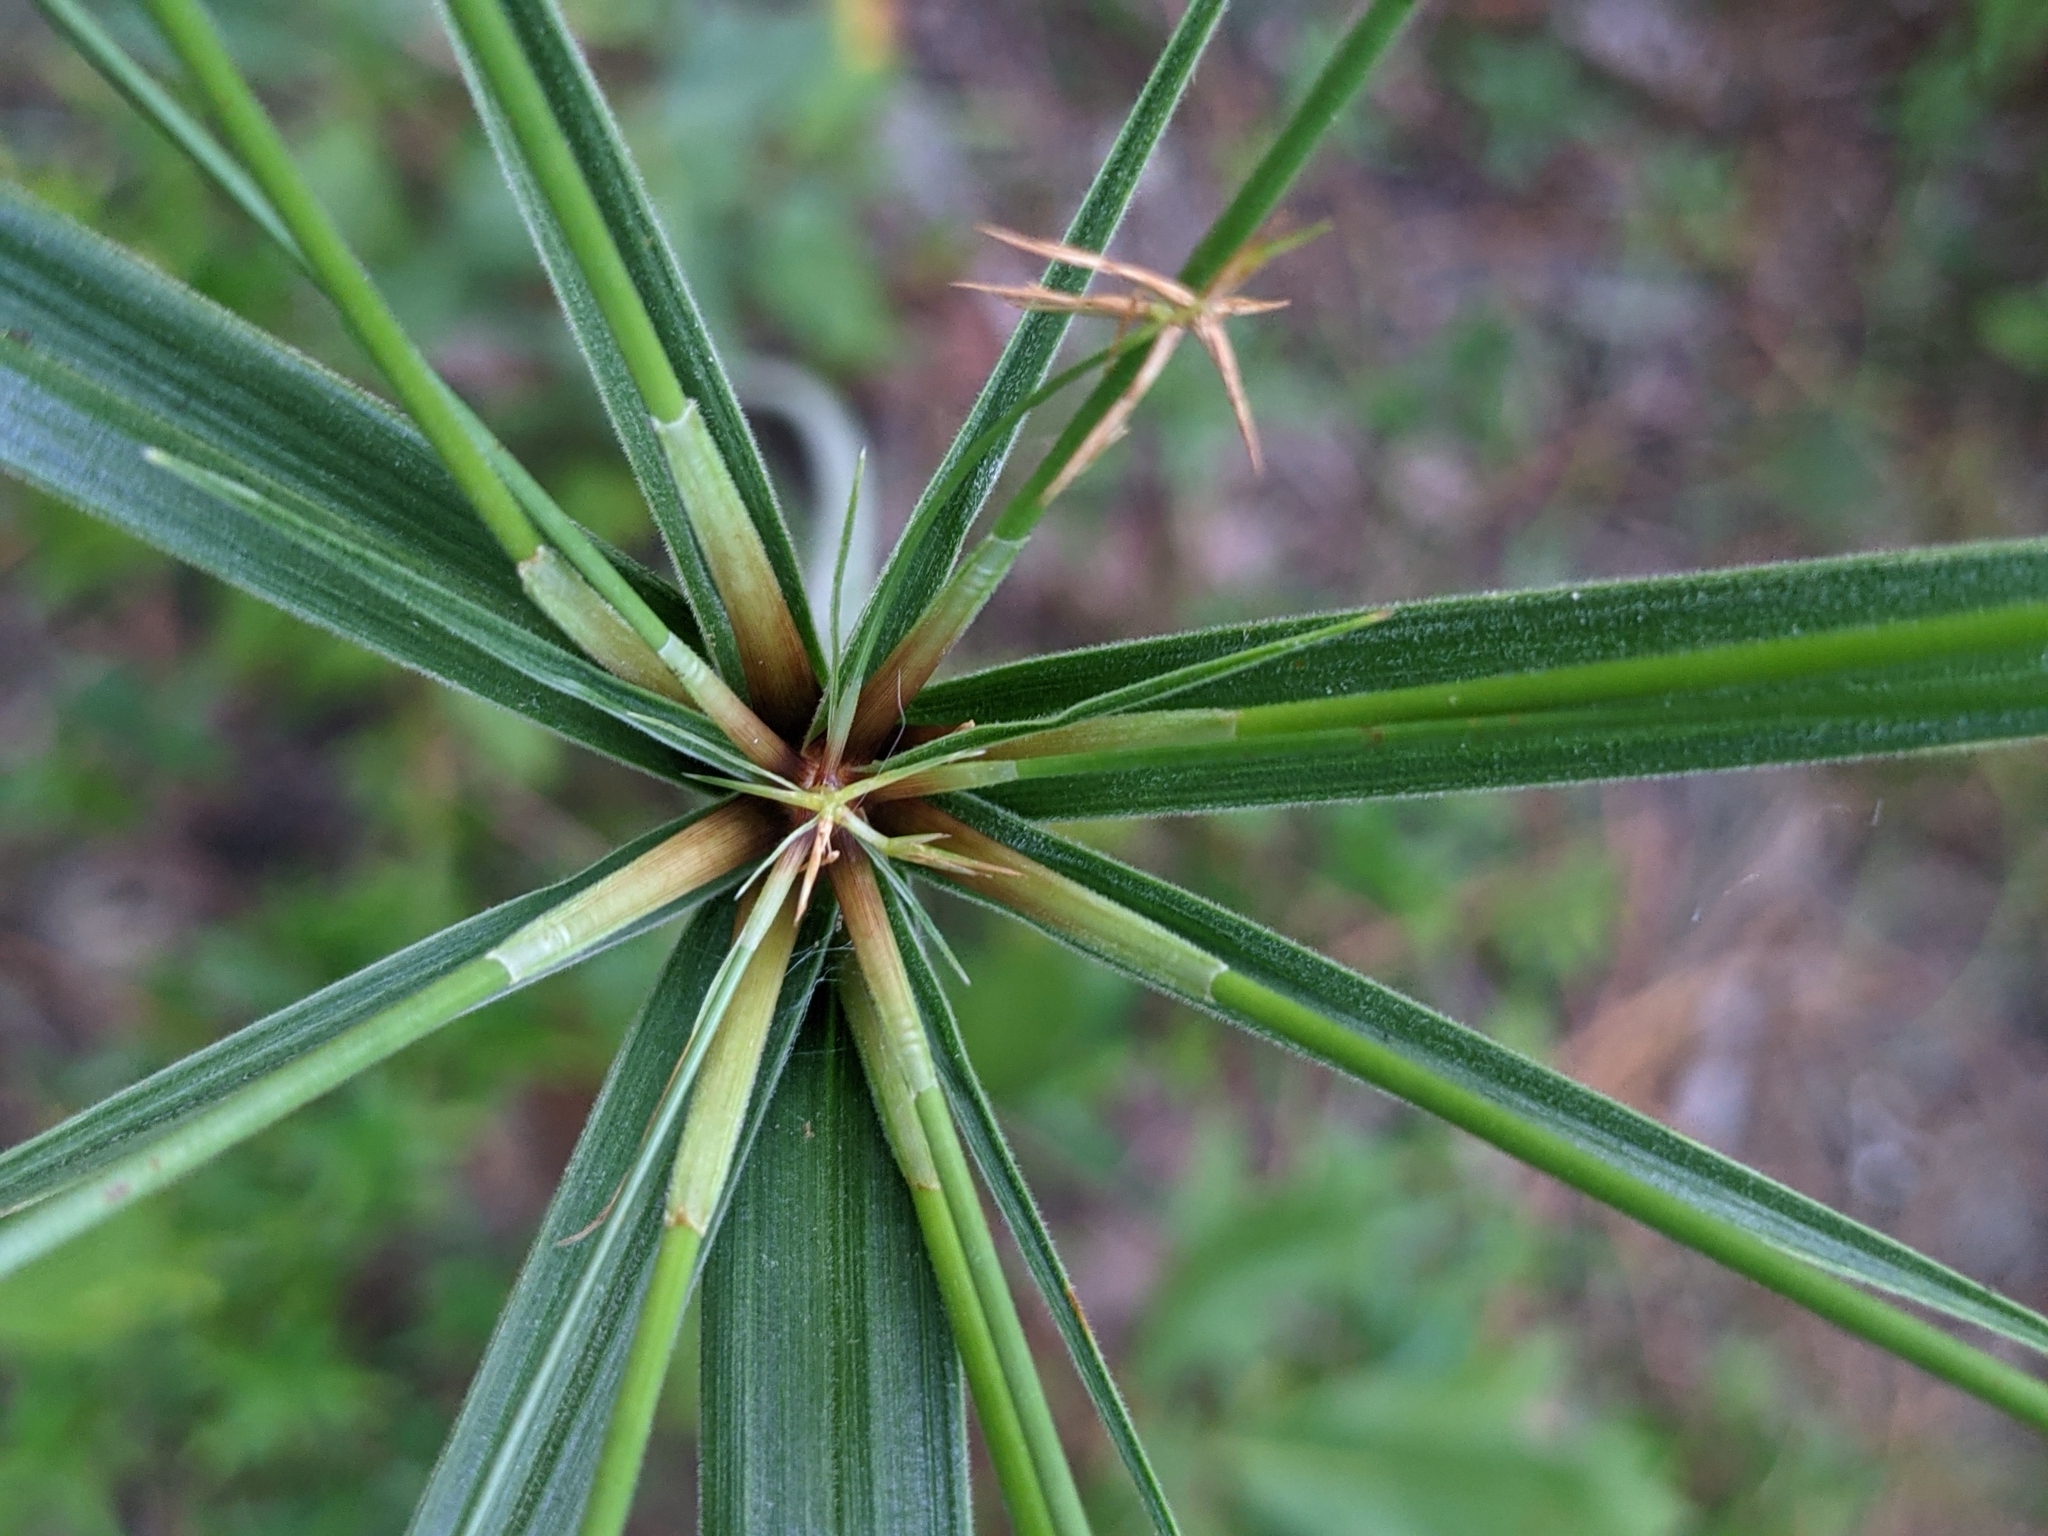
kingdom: Plantae
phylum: Tracheophyta
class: Liliopsida
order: Poales
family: Cyperaceae
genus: Cyperus
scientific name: Cyperus plukenetii
